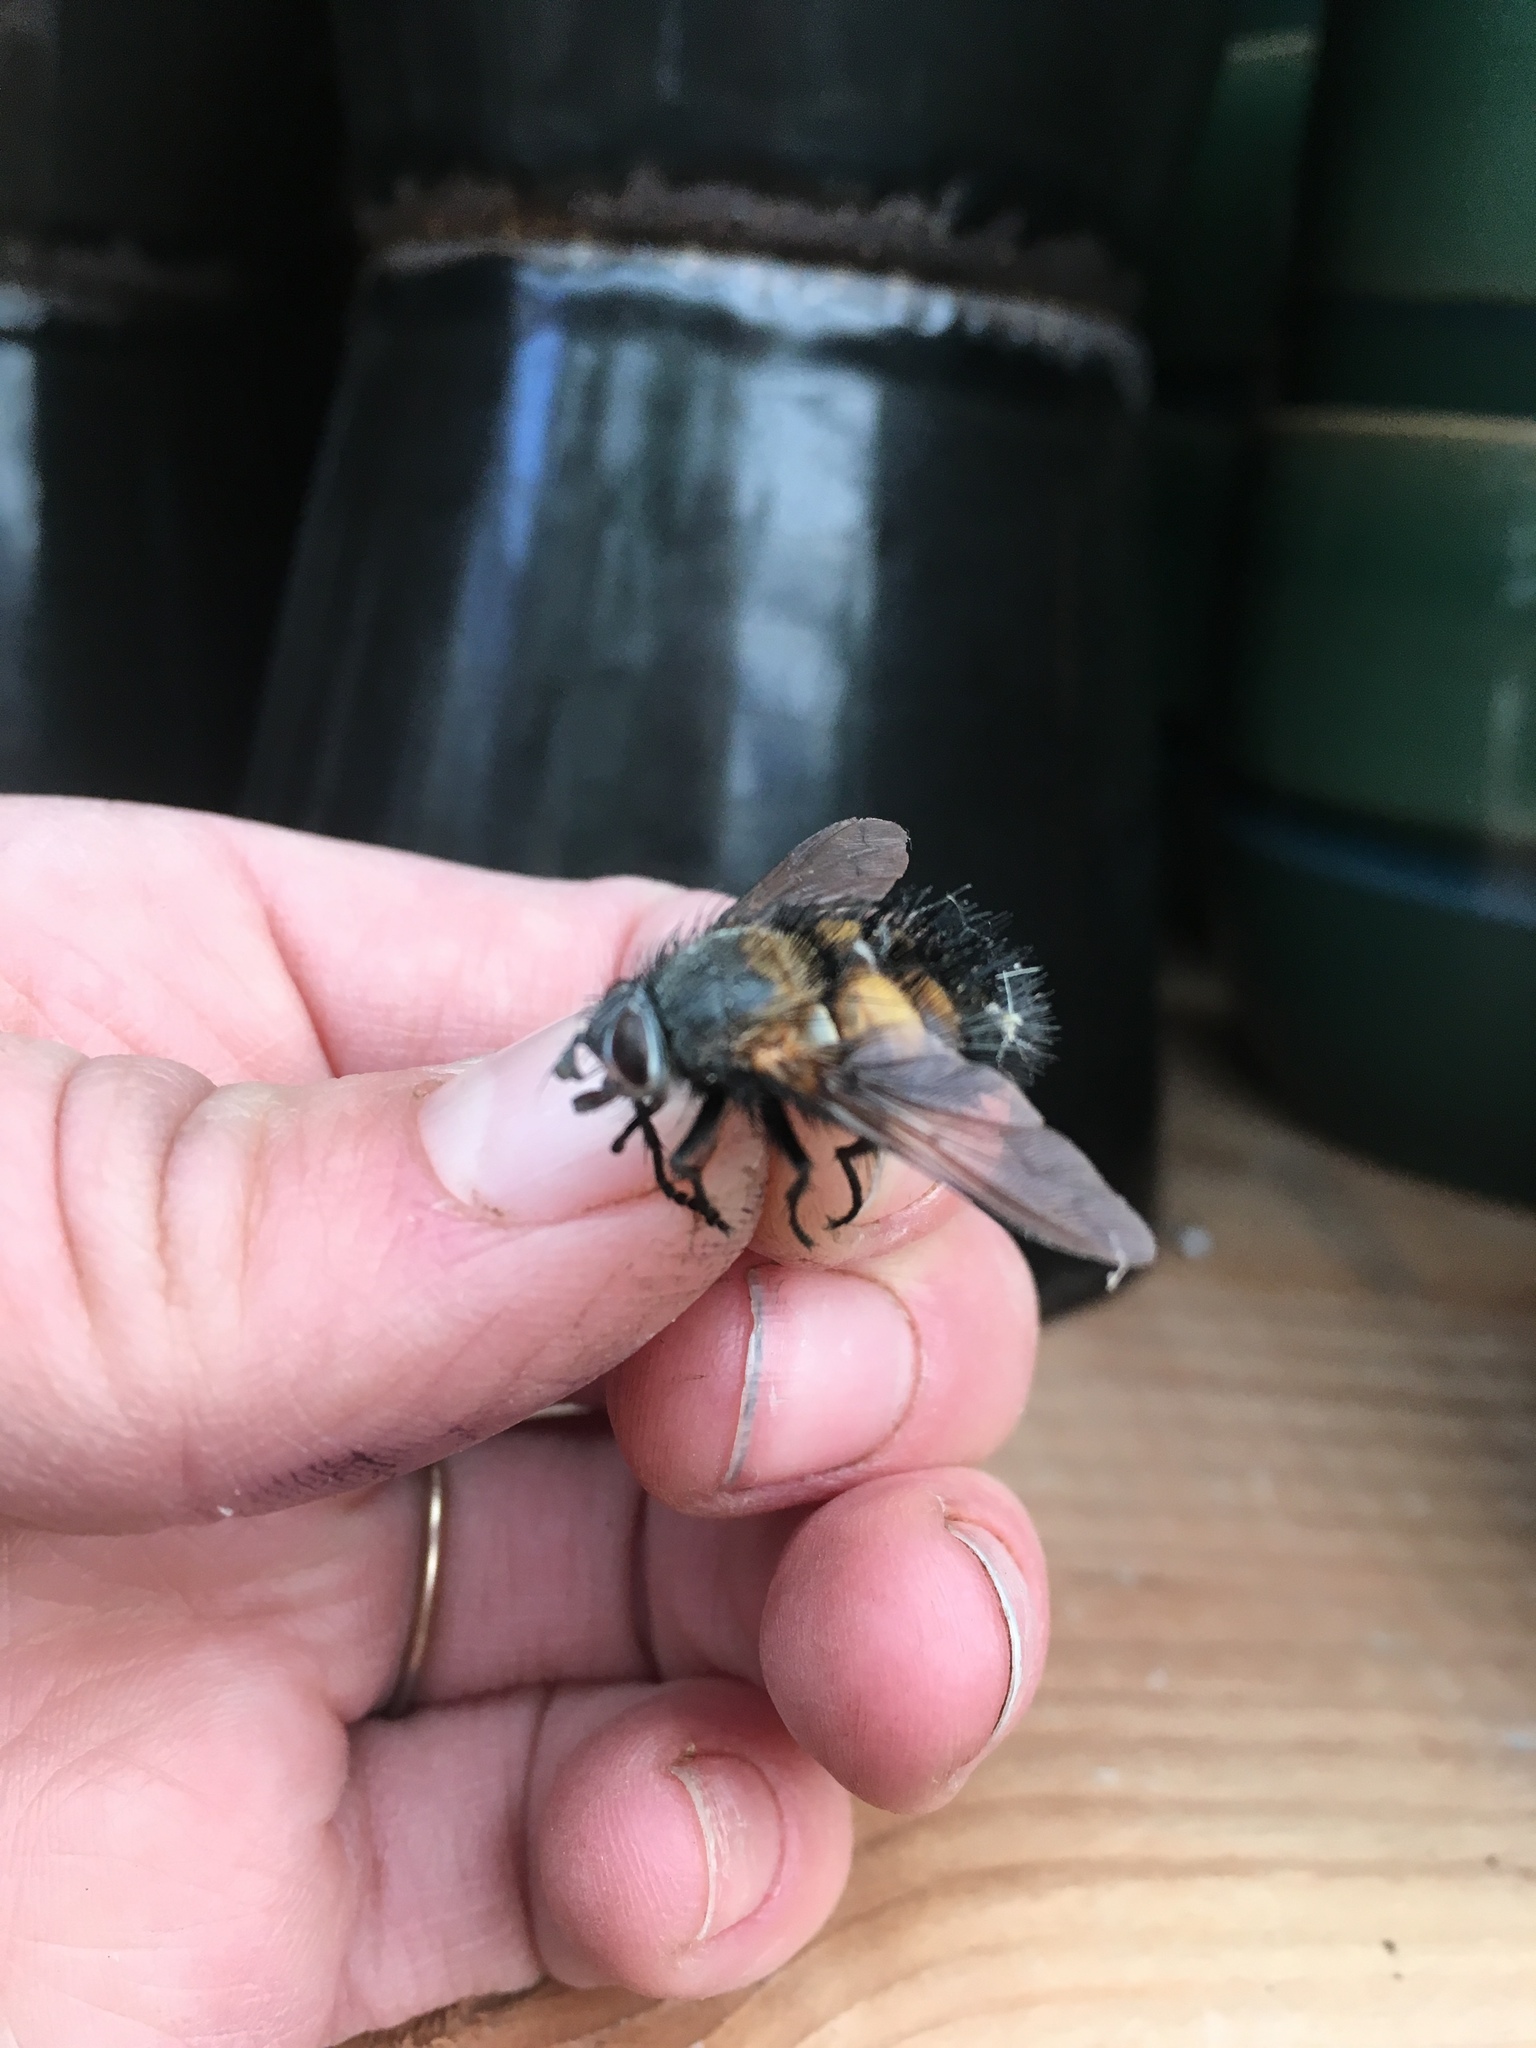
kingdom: Animalia
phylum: Arthropoda
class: Insecta
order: Diptera
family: Tachinidae
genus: Paradejeania
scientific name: Paradejeania rutilioides
